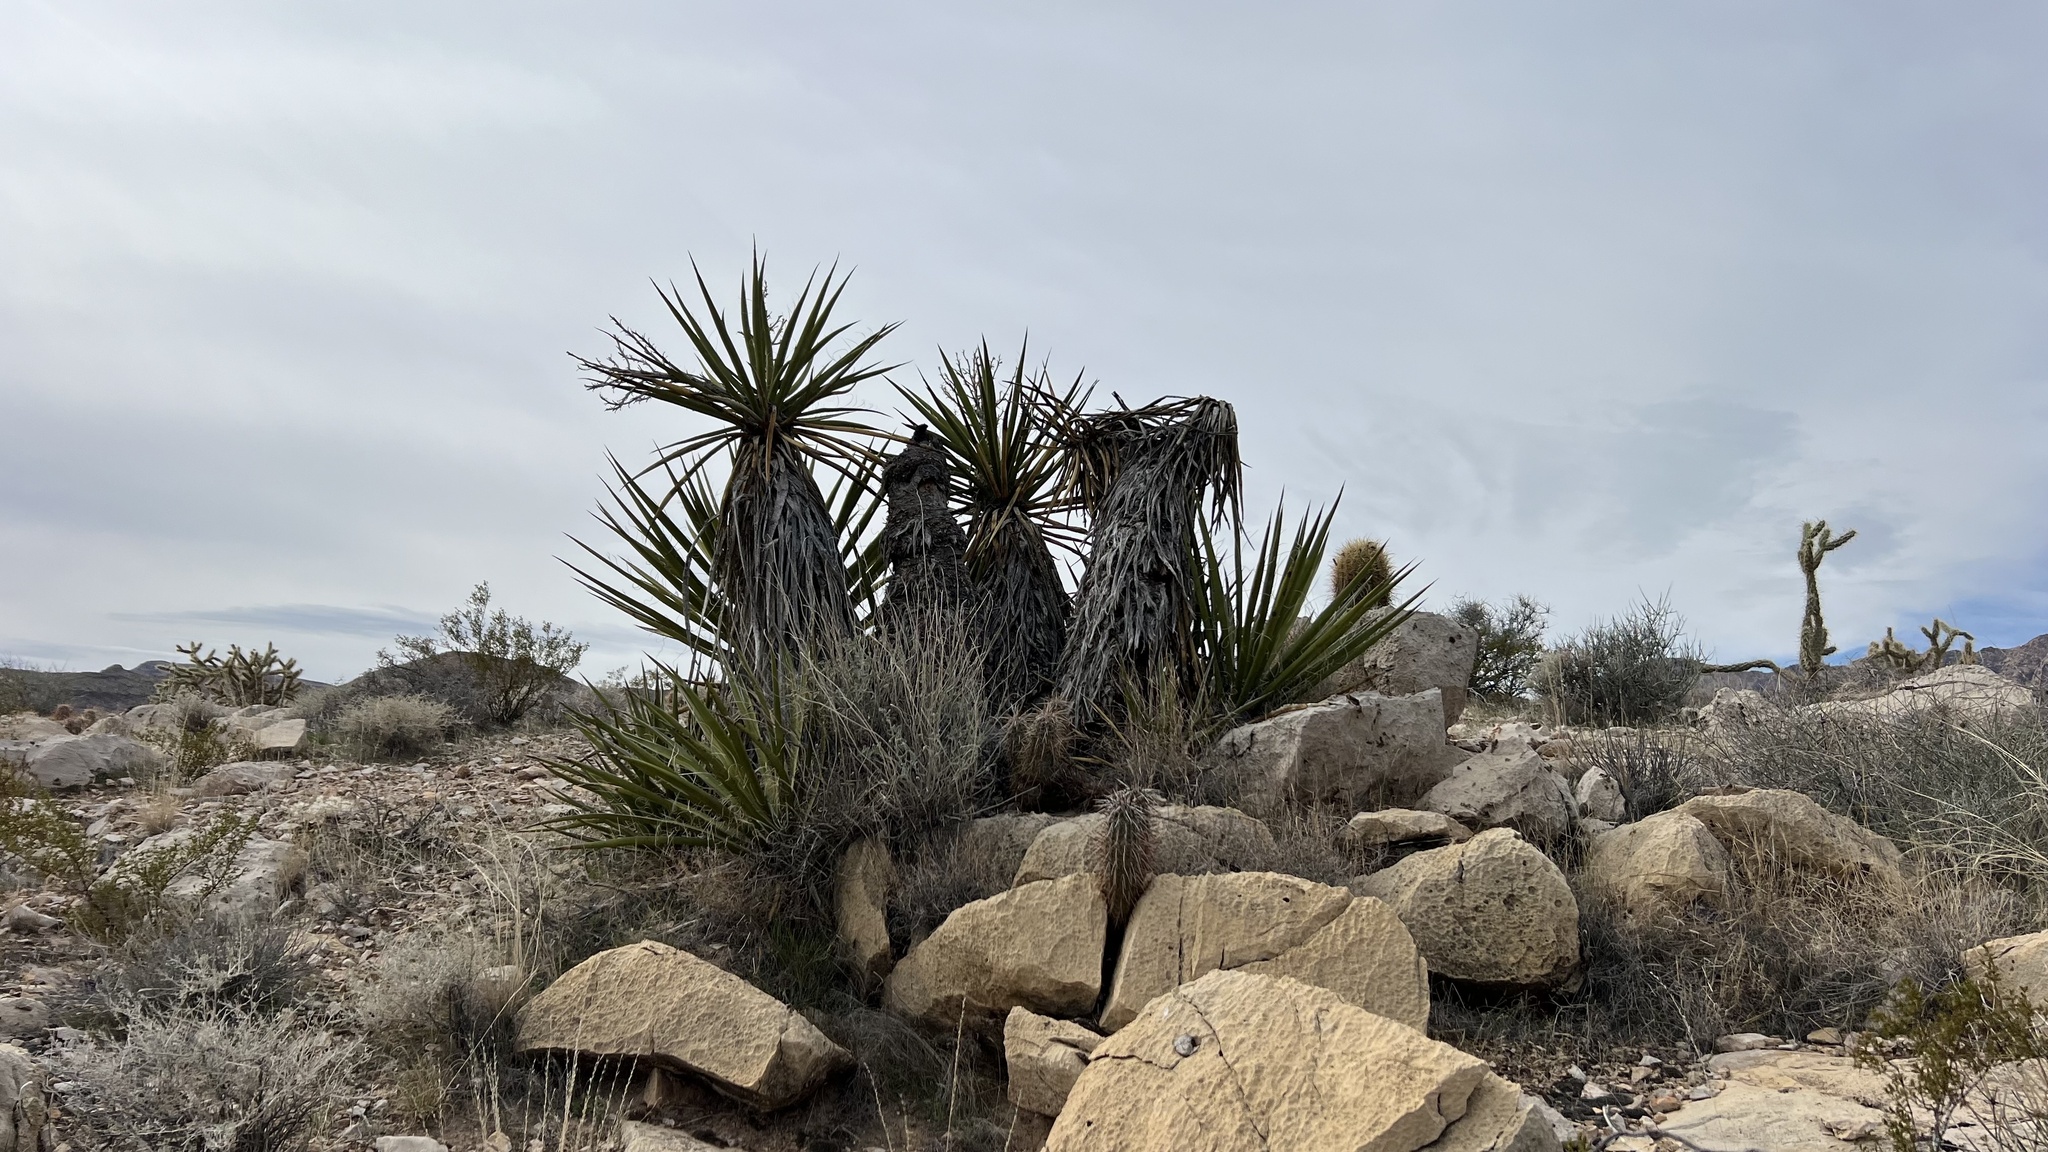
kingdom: Plantae
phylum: Tracheophyta
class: Liliopsida
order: Asparagales
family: Asparagaceae
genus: Yucca
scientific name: Yucca schidigera
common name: Mojave yucca
